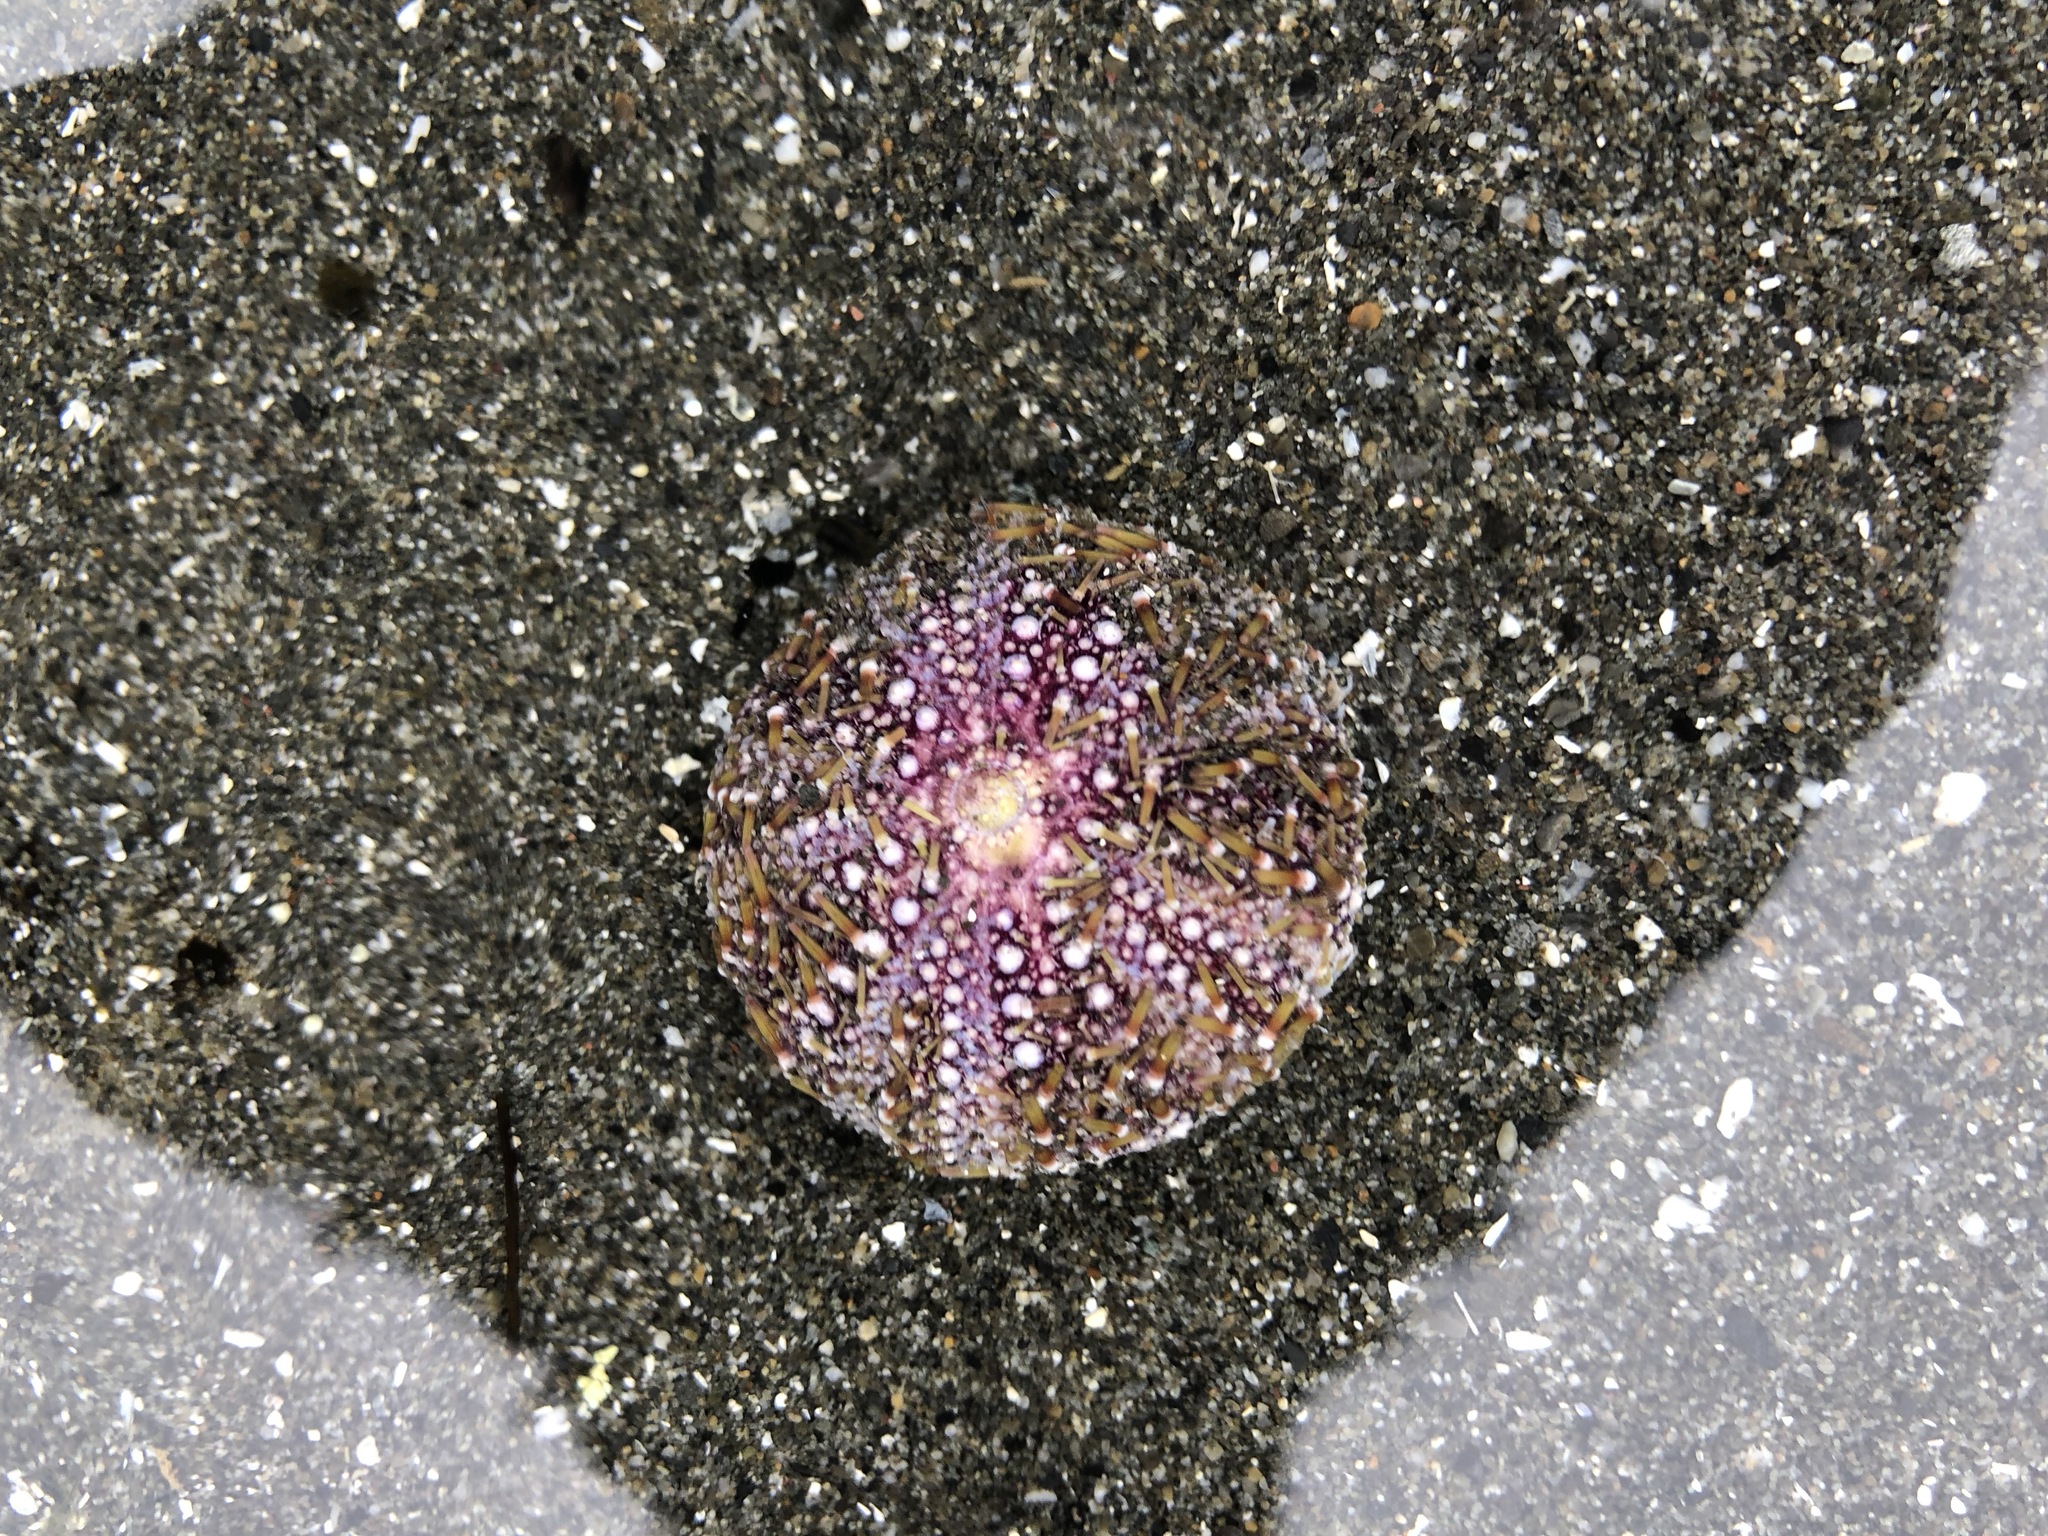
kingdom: Animalia
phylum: Echinodermata
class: Echinoidea
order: Camarodonta
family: Strongylocentrotidae
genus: Strongylocentrotus
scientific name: Strongylocentrotus droebachiensis
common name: Northern sea urchin
